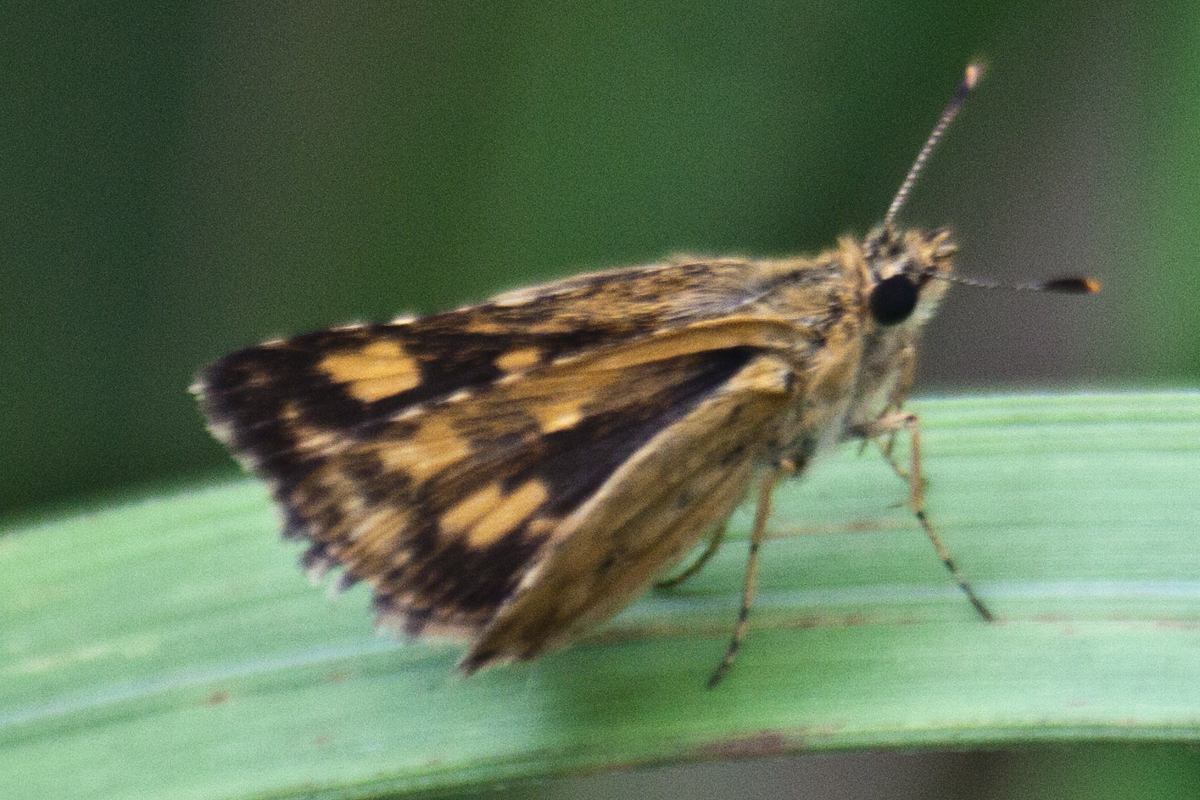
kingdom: Animalia
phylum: Arthropoda
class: Insecta
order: Lepidoptera
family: Hesperiidae
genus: Ampittia
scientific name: Ampittia dioscorides
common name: Common bush hopper
